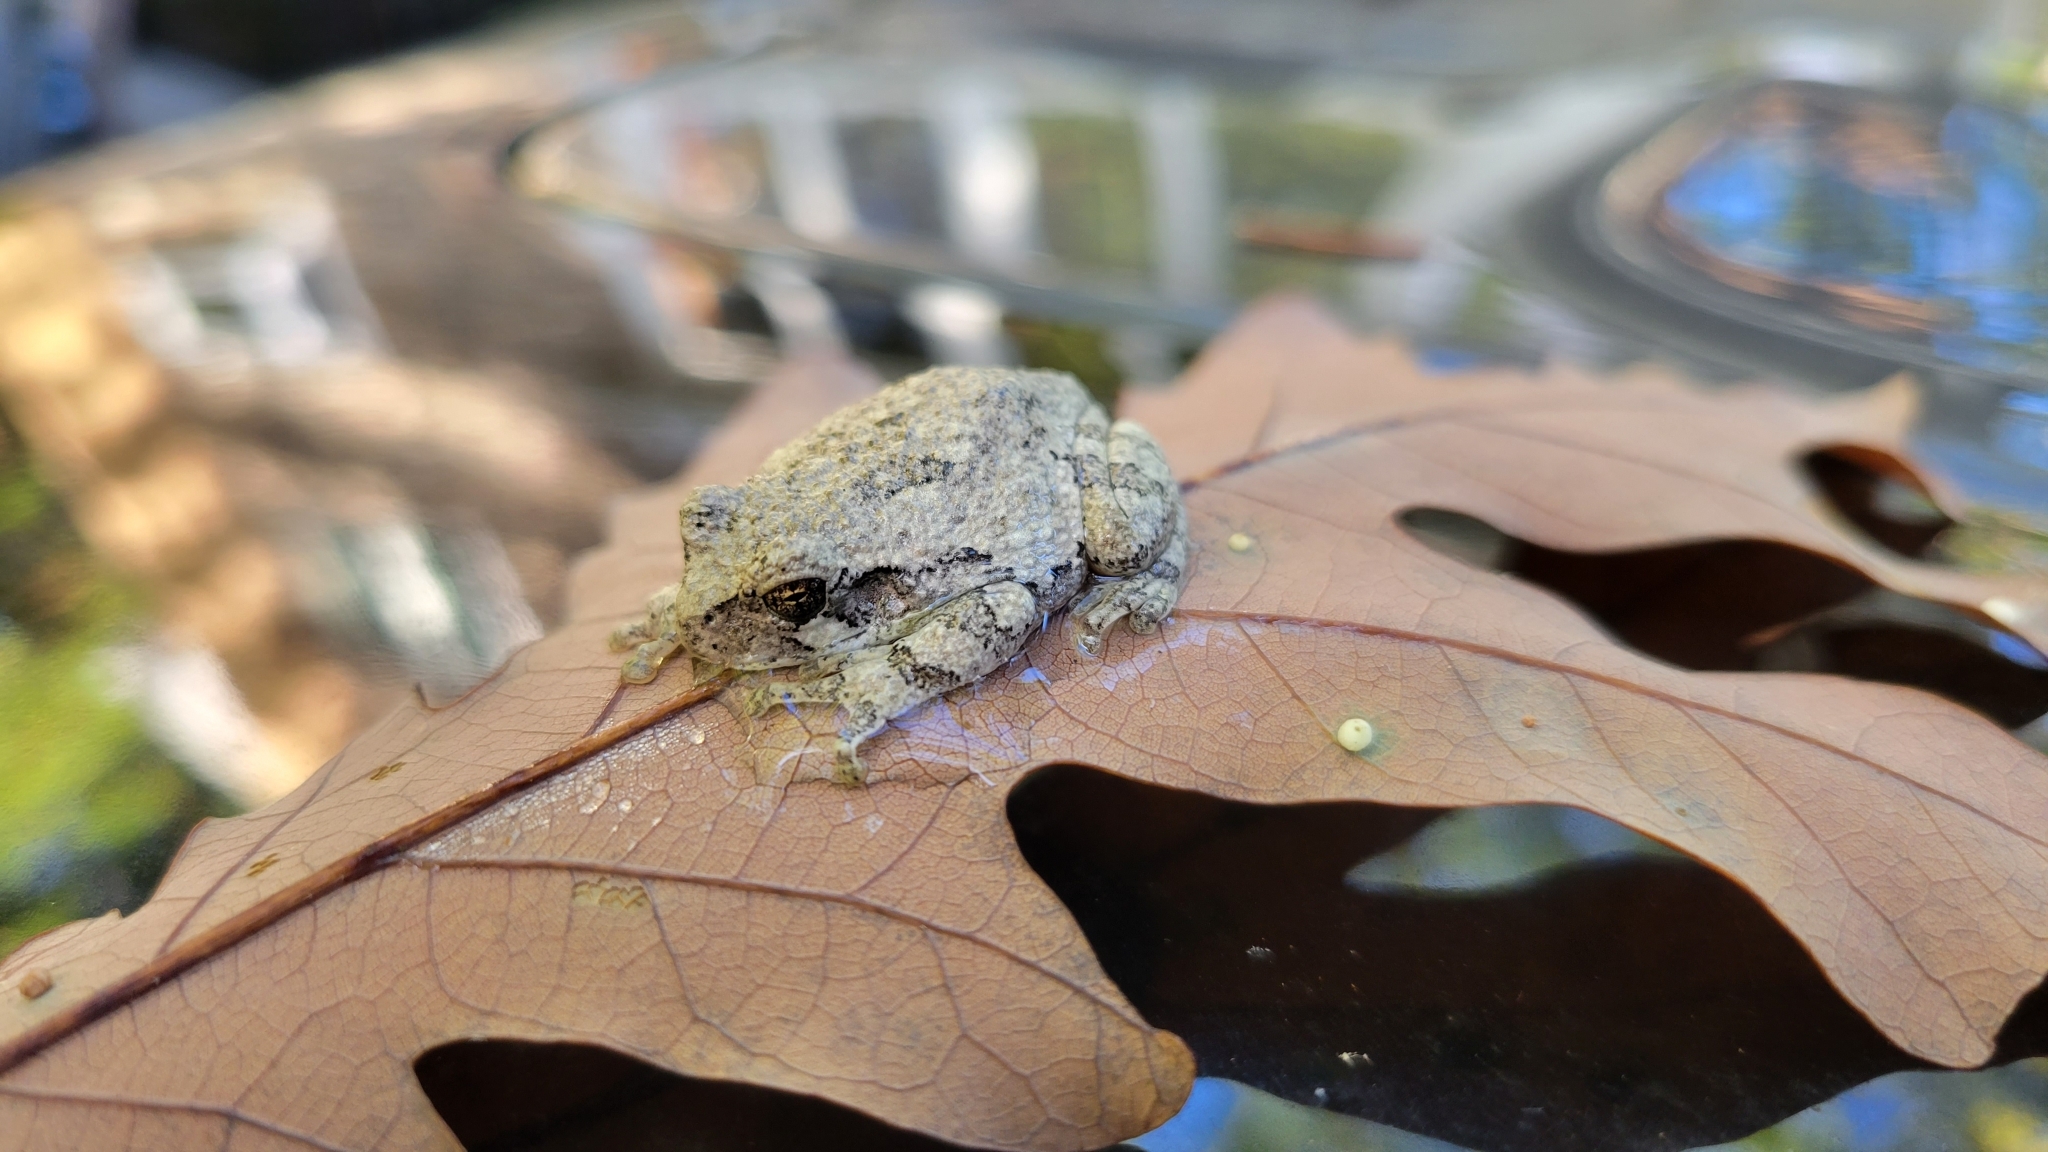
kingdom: Animalia
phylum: Chordata
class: Amphibia
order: Anura
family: Hylidae
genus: Dryophytes
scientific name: Dryophytes versicolor
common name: Gray treefrog
